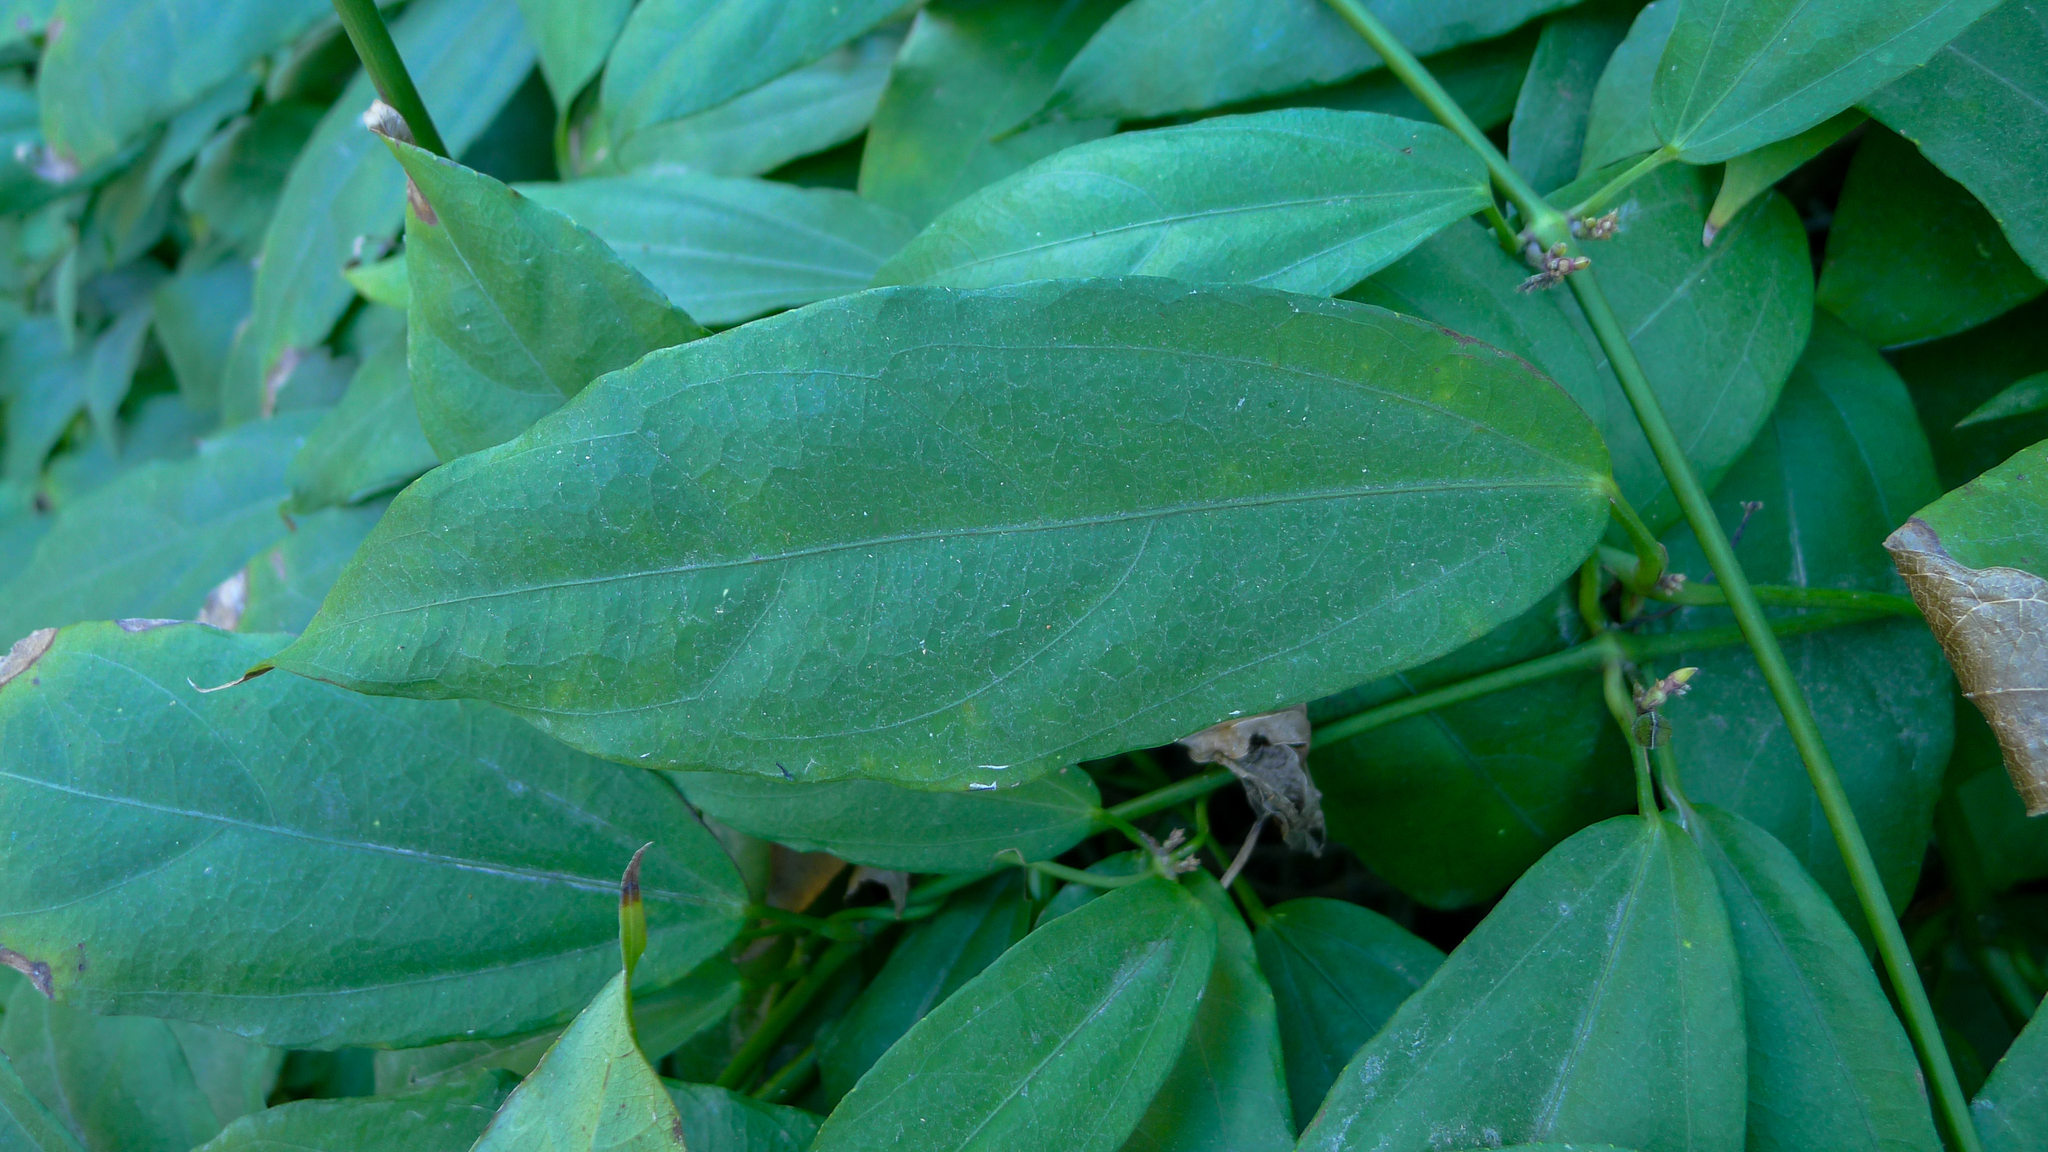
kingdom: Plantae
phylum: Tracheophyta
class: Magnoliopsida
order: Lamiales
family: Acanthaceae
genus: Thunbergia
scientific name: Thunbergia laurifolia
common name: Laurel-leaved thunbergia
